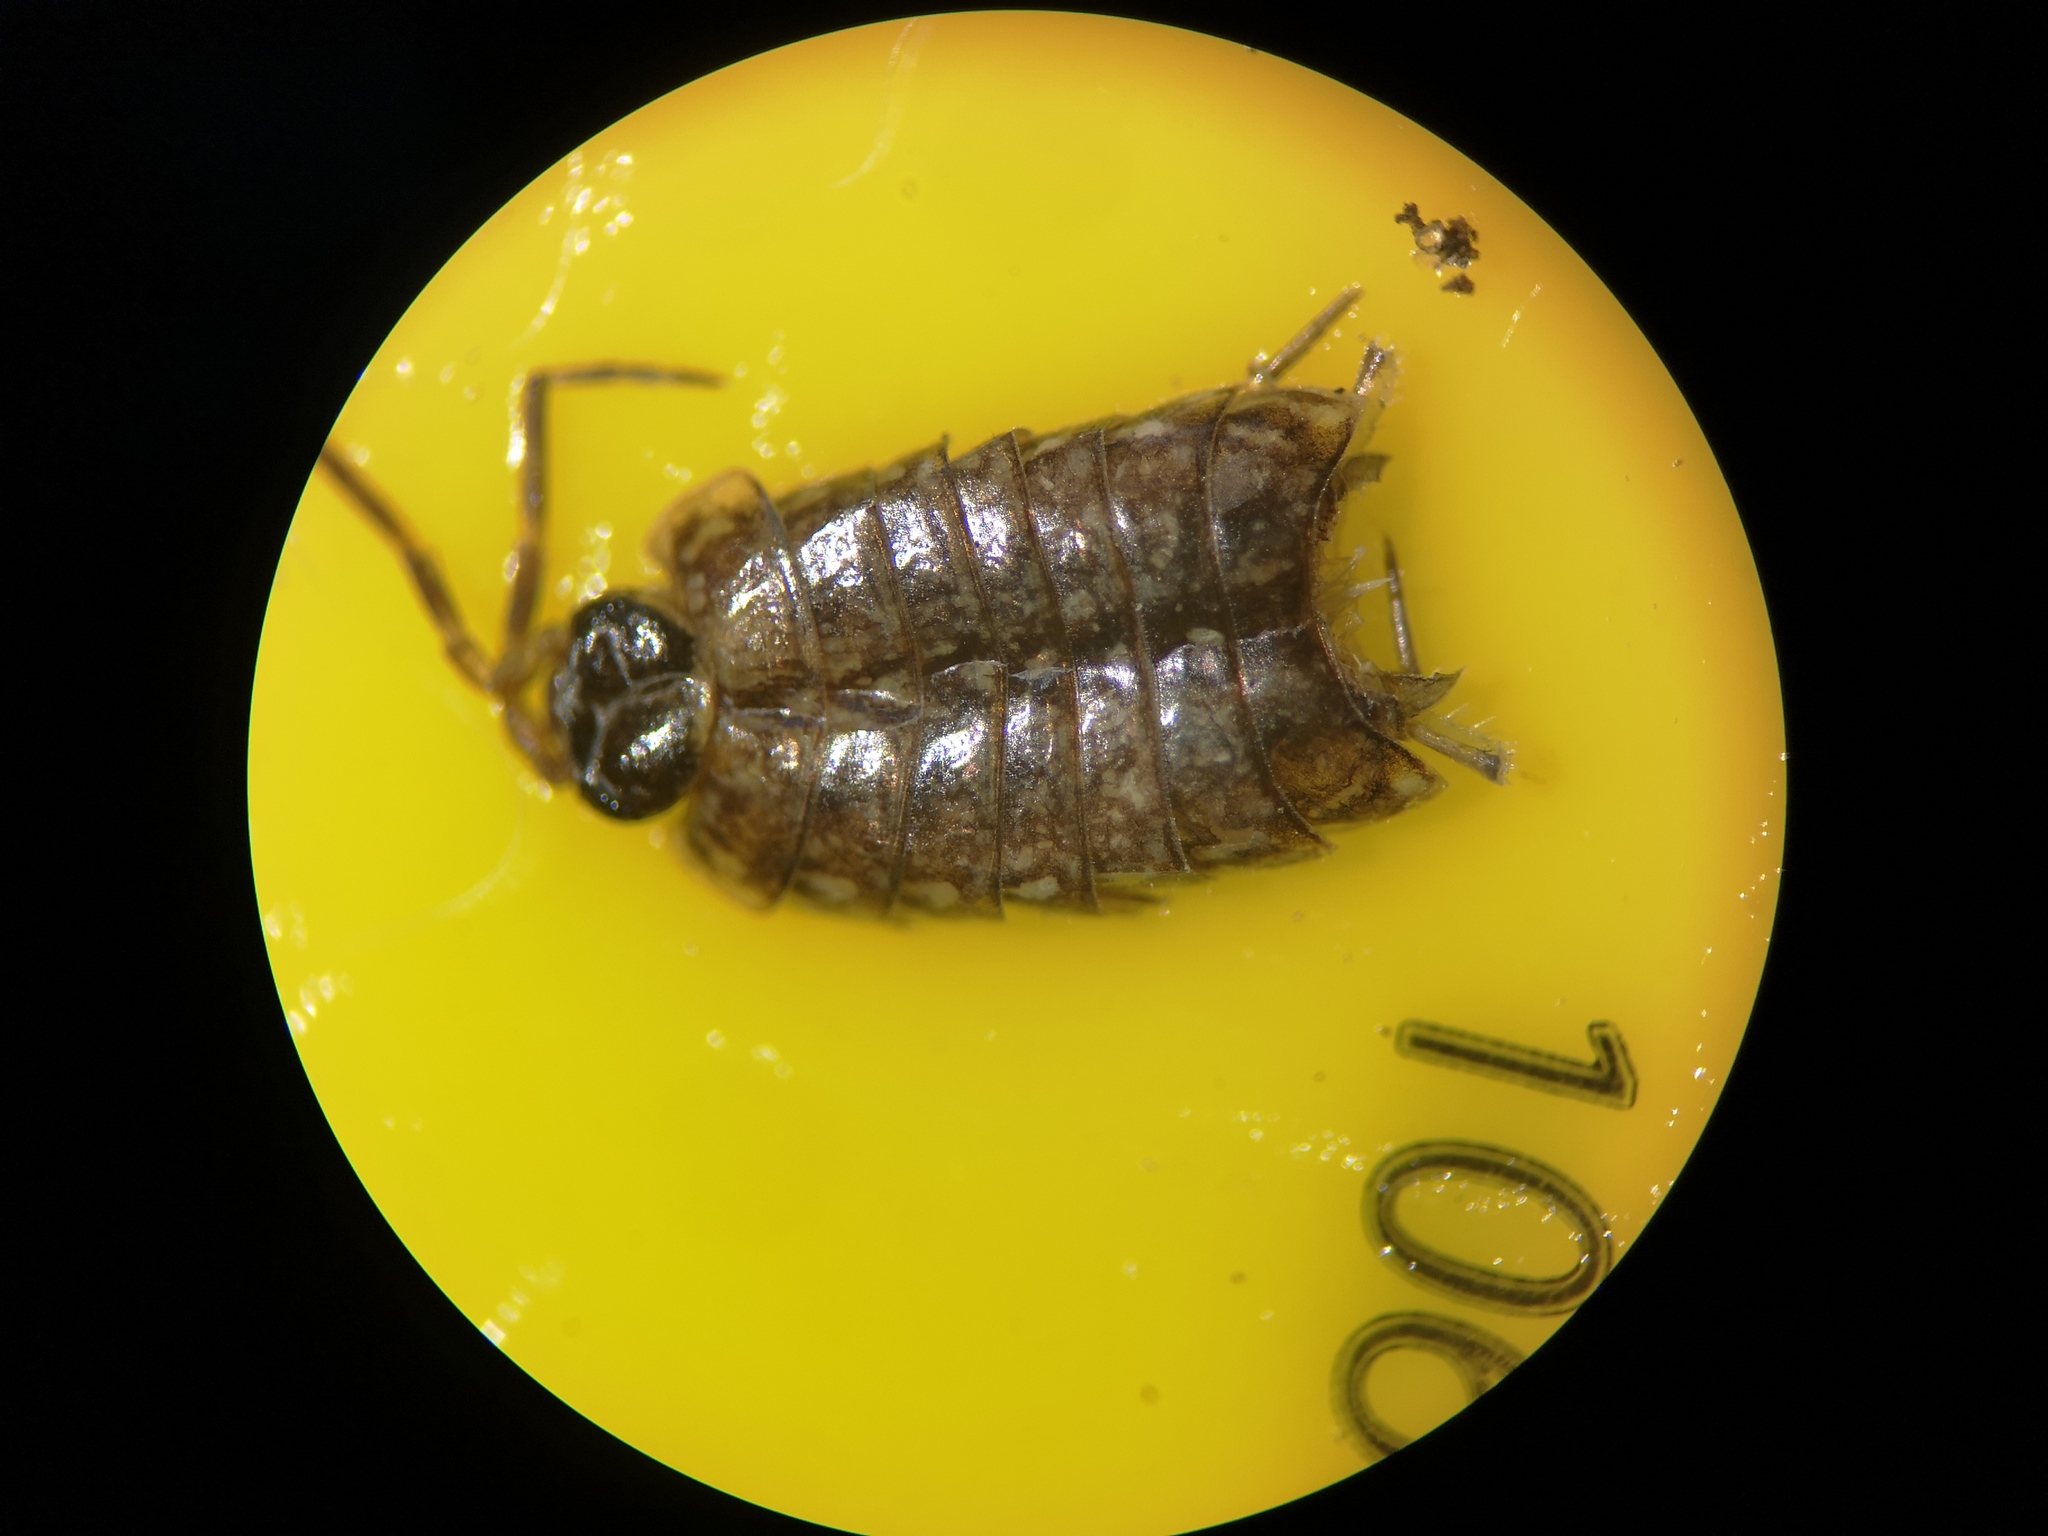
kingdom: Animalia
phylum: Arthropoda
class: Malacostraca
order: Isopoda
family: Philosciidae
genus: Philoscia
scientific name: Philoscia muscorum
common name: Common striped woodlouse
